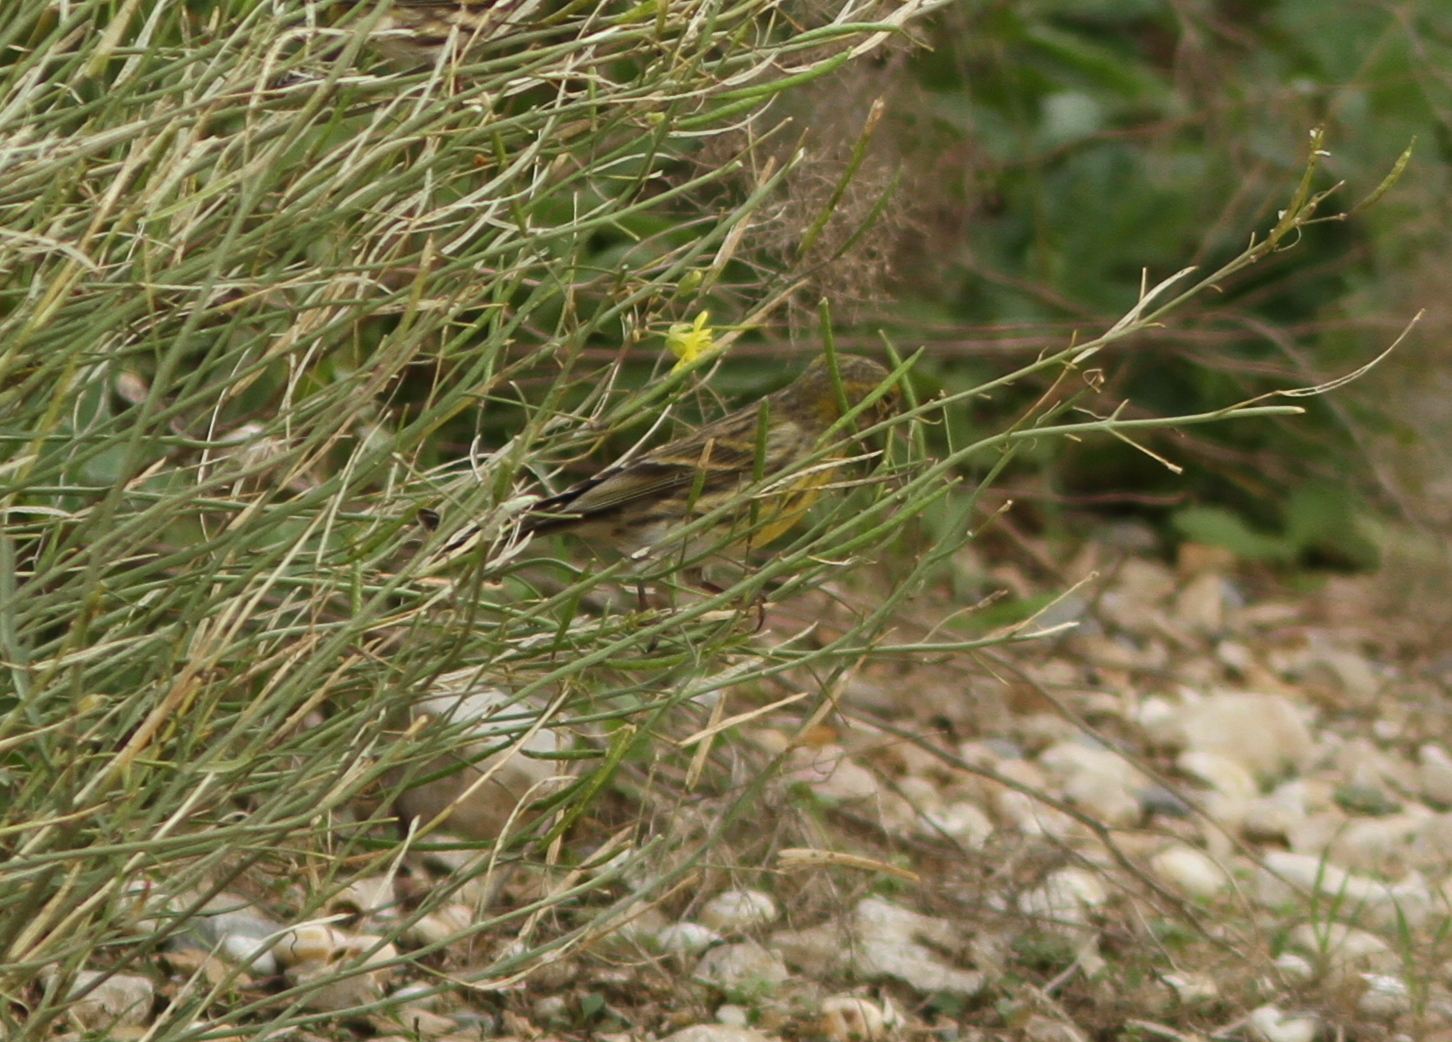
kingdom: Animalia
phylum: Chordata
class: Aves
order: Passeriformes
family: Fringillidae
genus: Serinus
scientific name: Serinus serinus
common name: European serin
